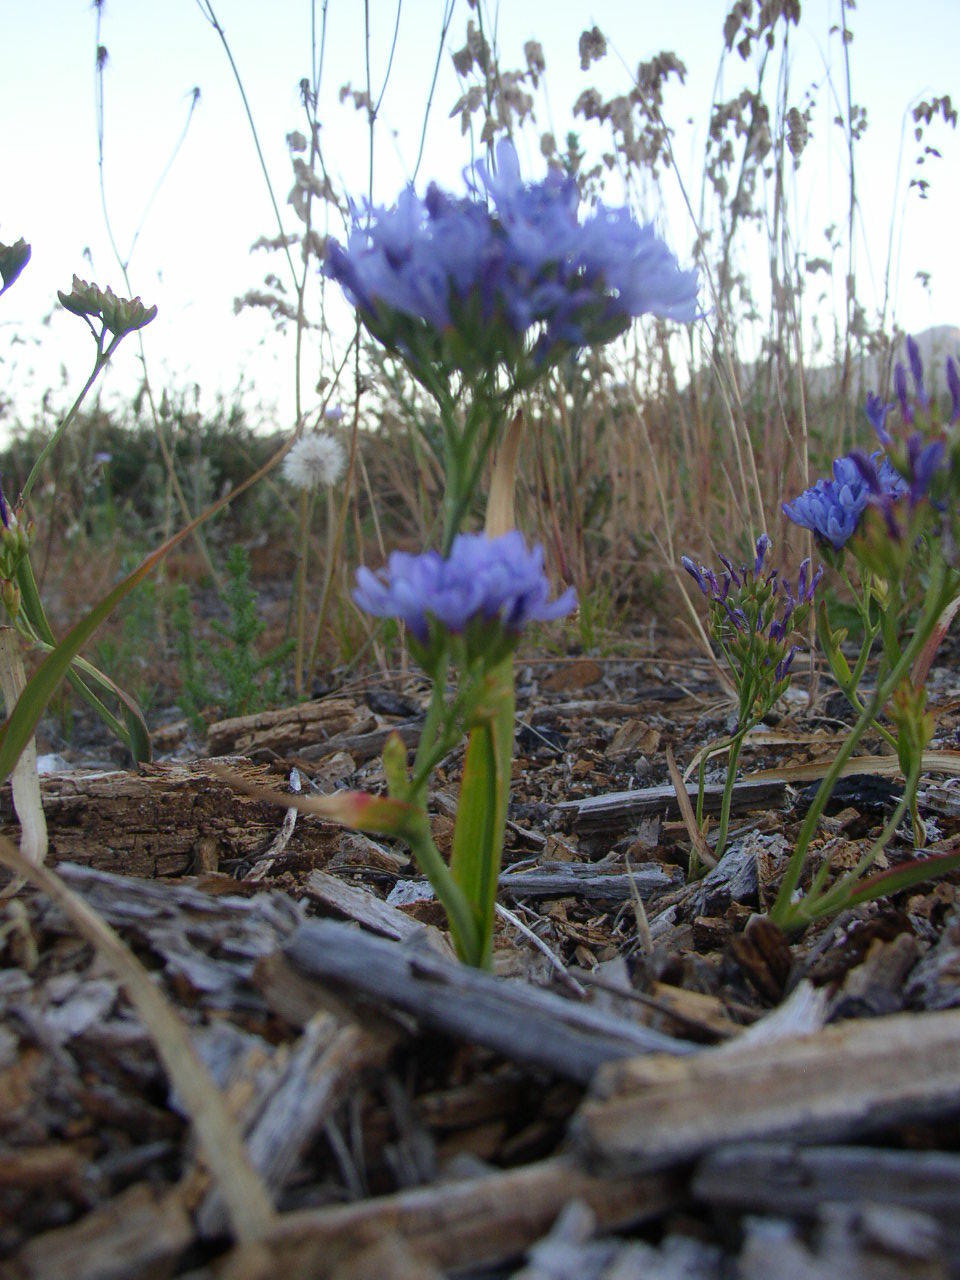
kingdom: Plantae
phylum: Tracheophyta
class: Liliopsida
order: Asparagales
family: Iridaceae
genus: Codonorhiza
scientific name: Codonorhiza corymbosa
